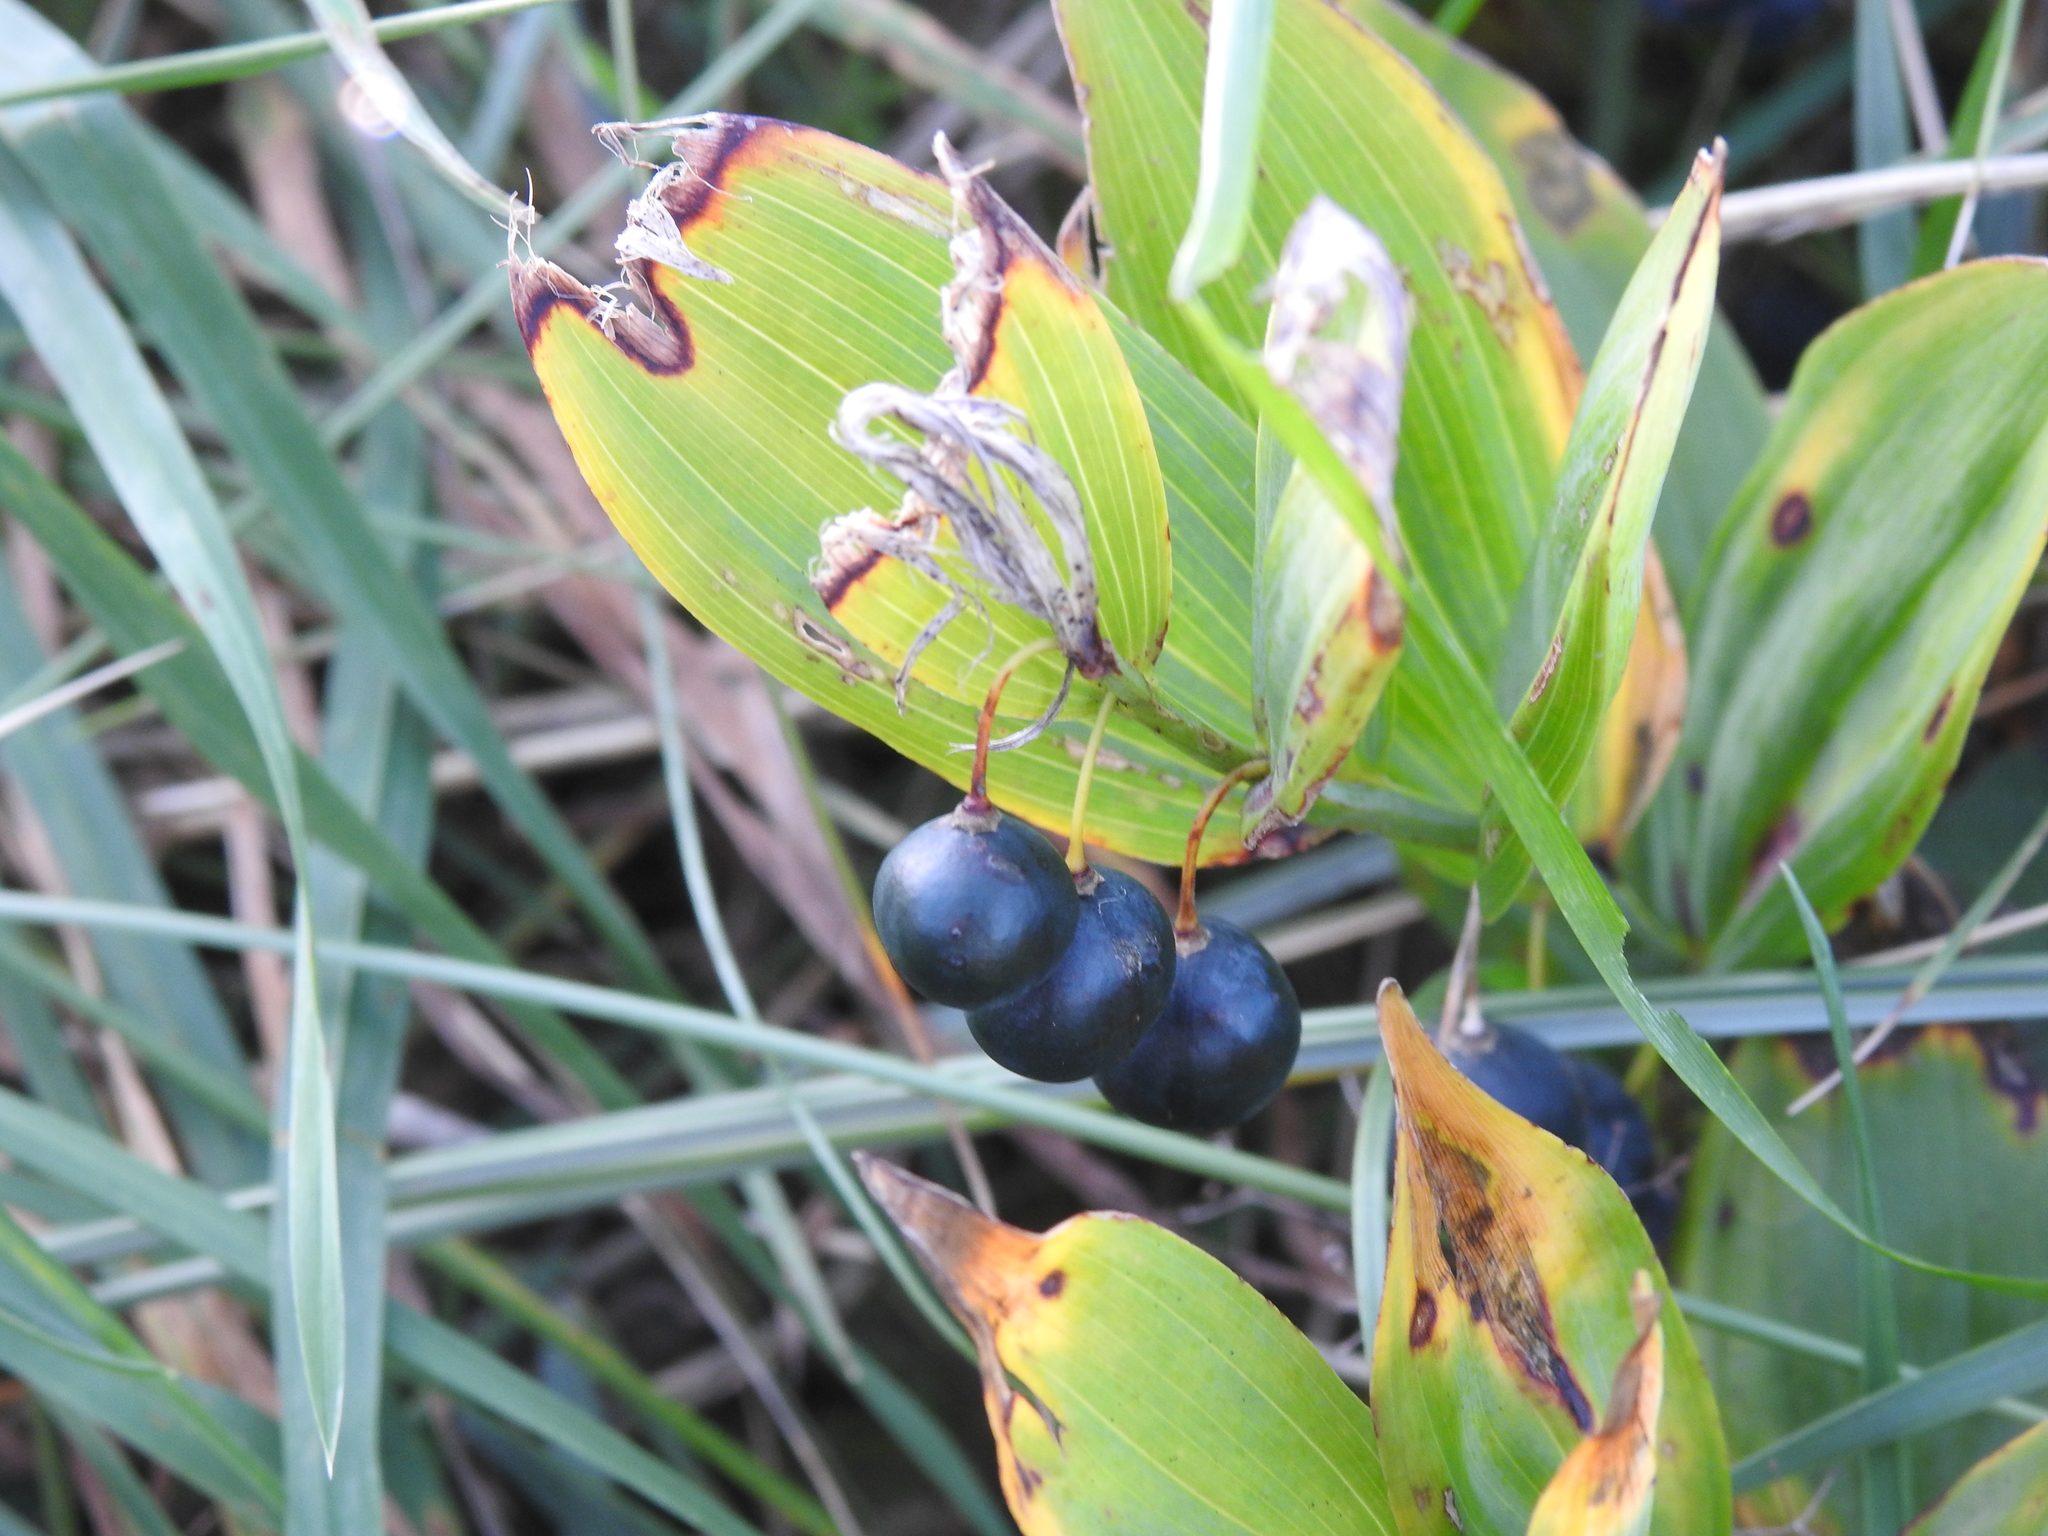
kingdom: Plantae
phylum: Tracheophyta
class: Liliopsida
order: Asparagales
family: Asparagaceae
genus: Polygonatum
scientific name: Polygonatum odoratum
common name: Angular solomon's-seal
